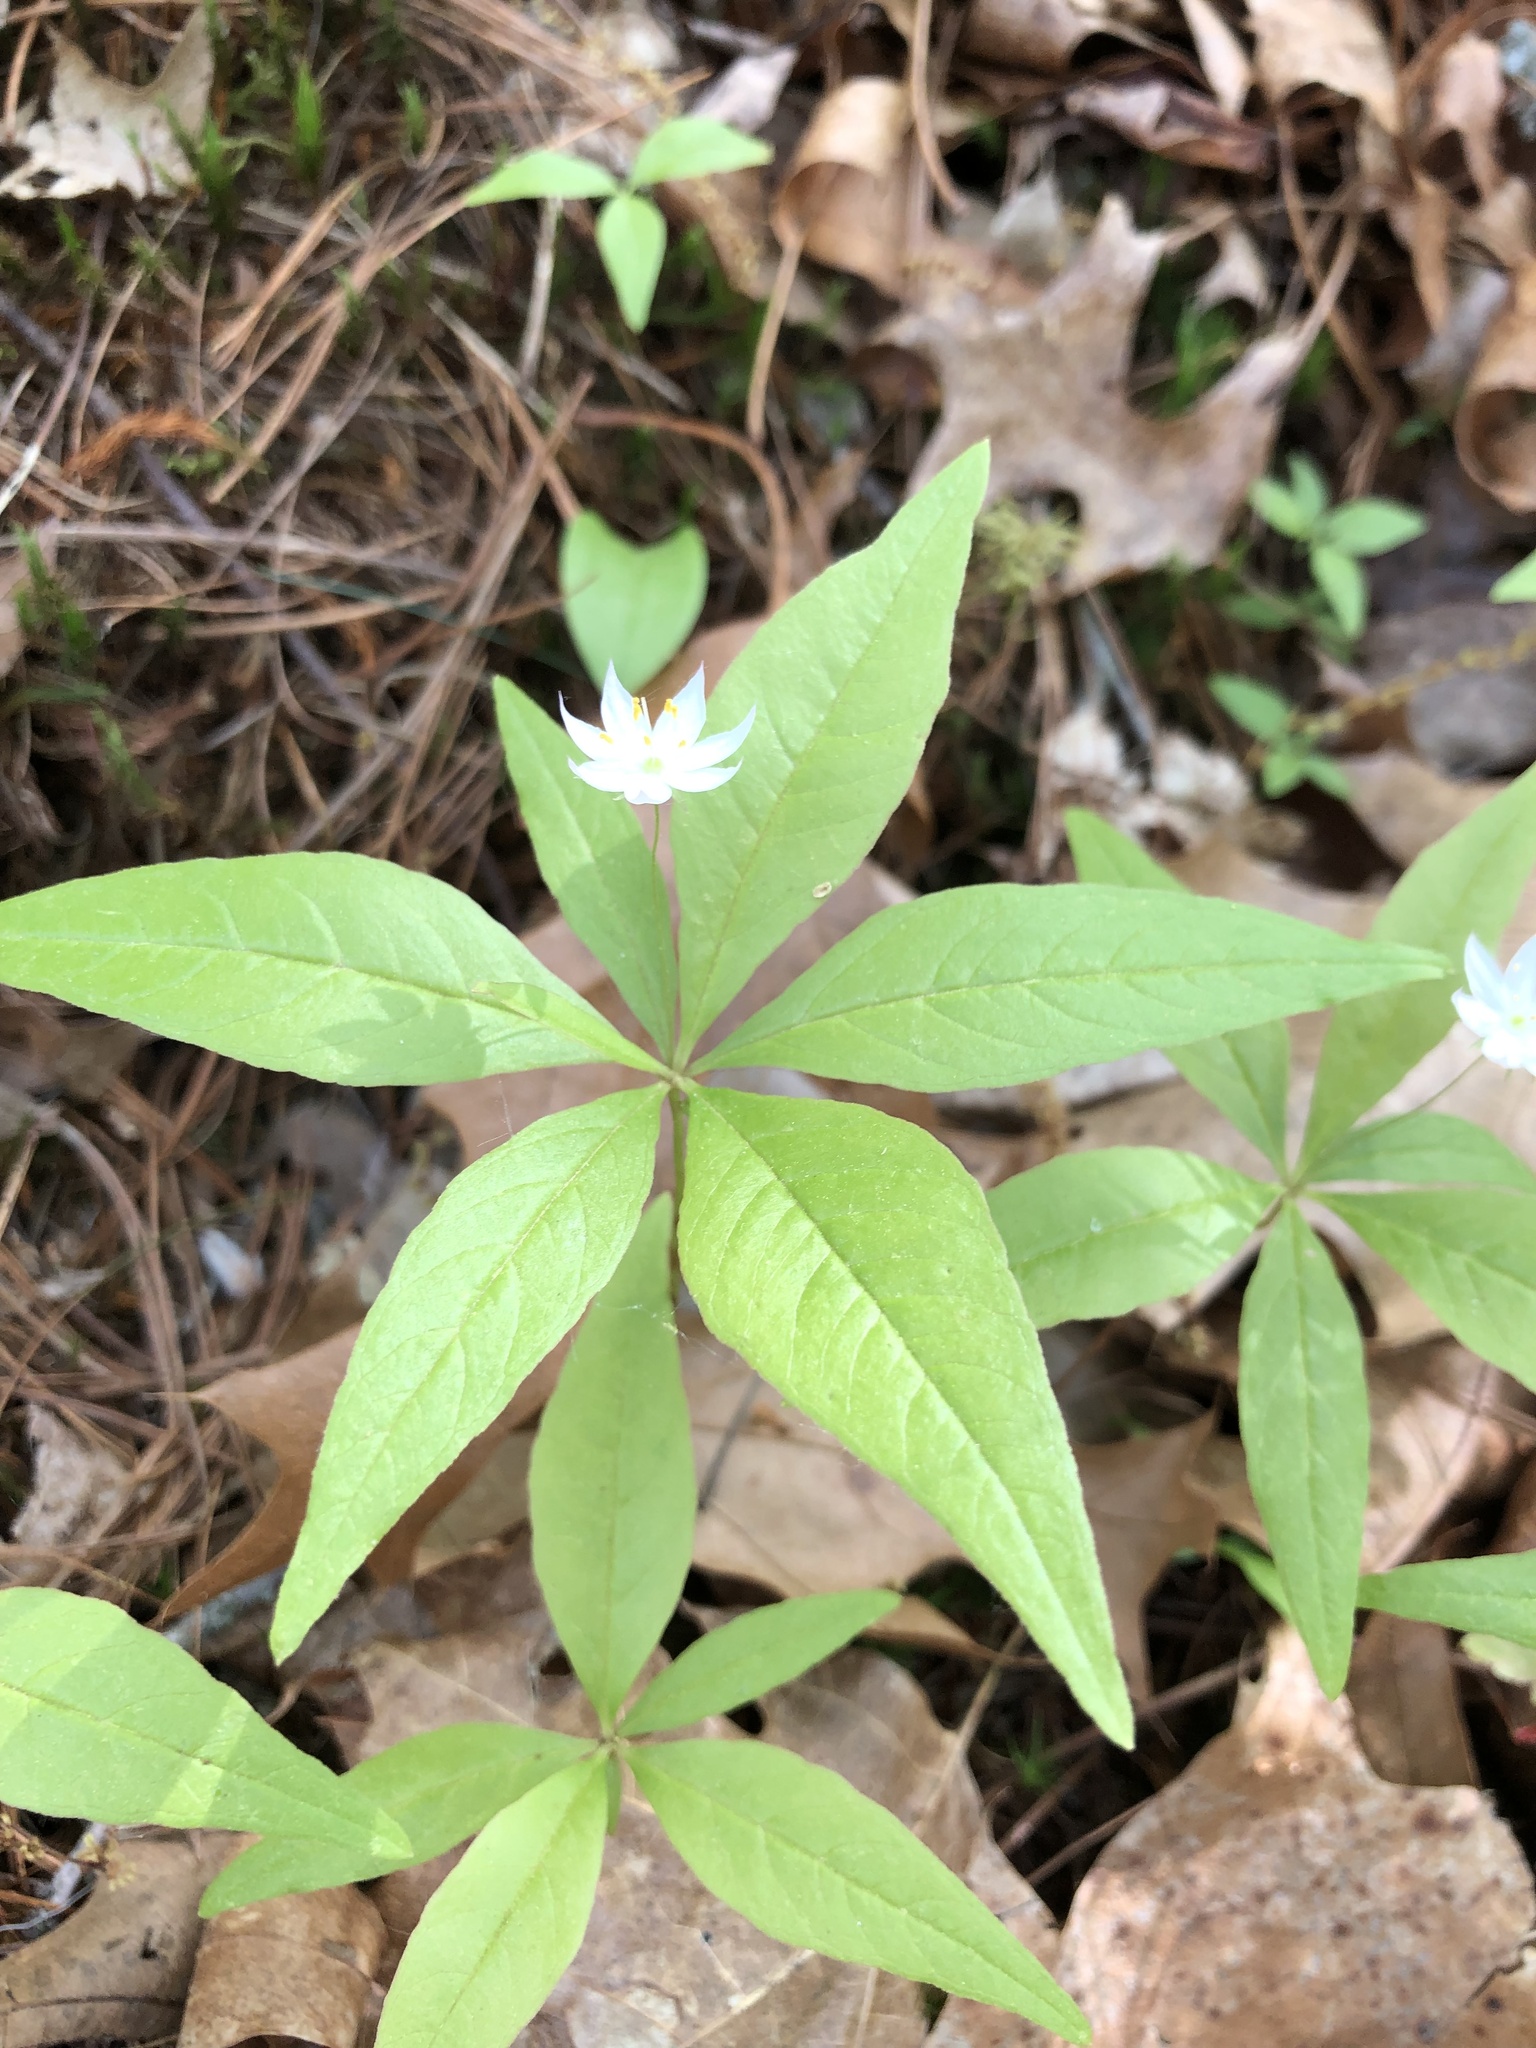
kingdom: Plantae
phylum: Tracheophyta
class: Magnoliopsida
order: Ericales
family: Primulaceae
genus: Lysimachia
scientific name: Lysimachia borealis
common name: American starflower
